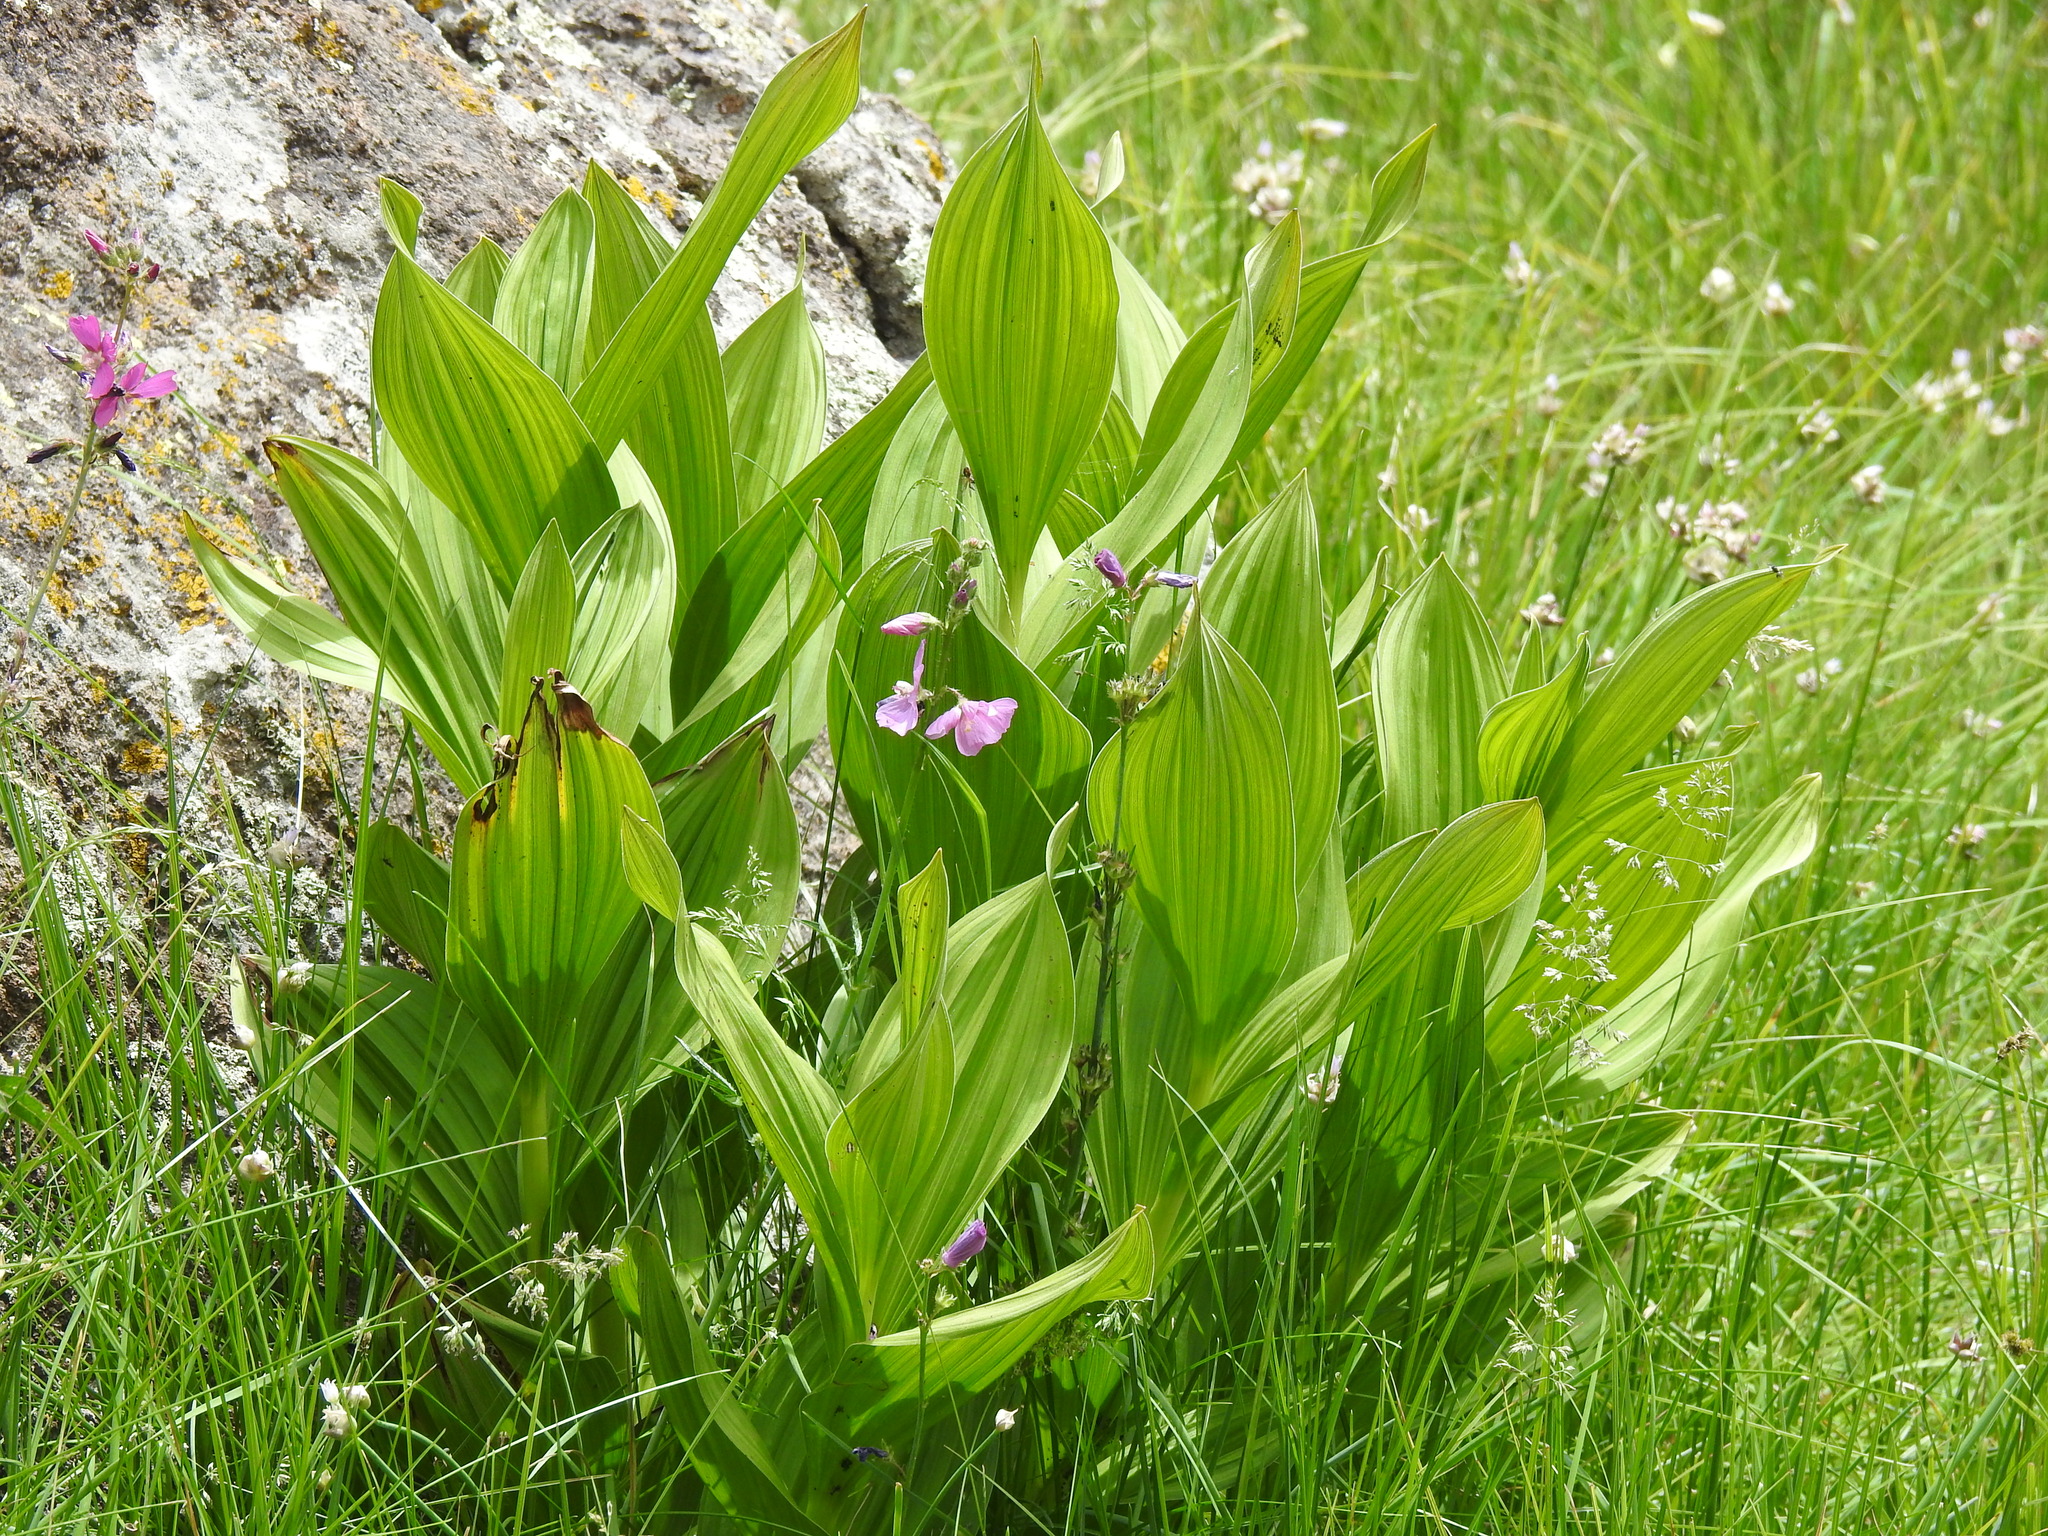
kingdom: Plantae
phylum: Tracheophyta
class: Liliopsida
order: Liliales
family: Melanthiaceae
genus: Veratrum
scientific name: Veratrum californicum
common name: California veratrum
